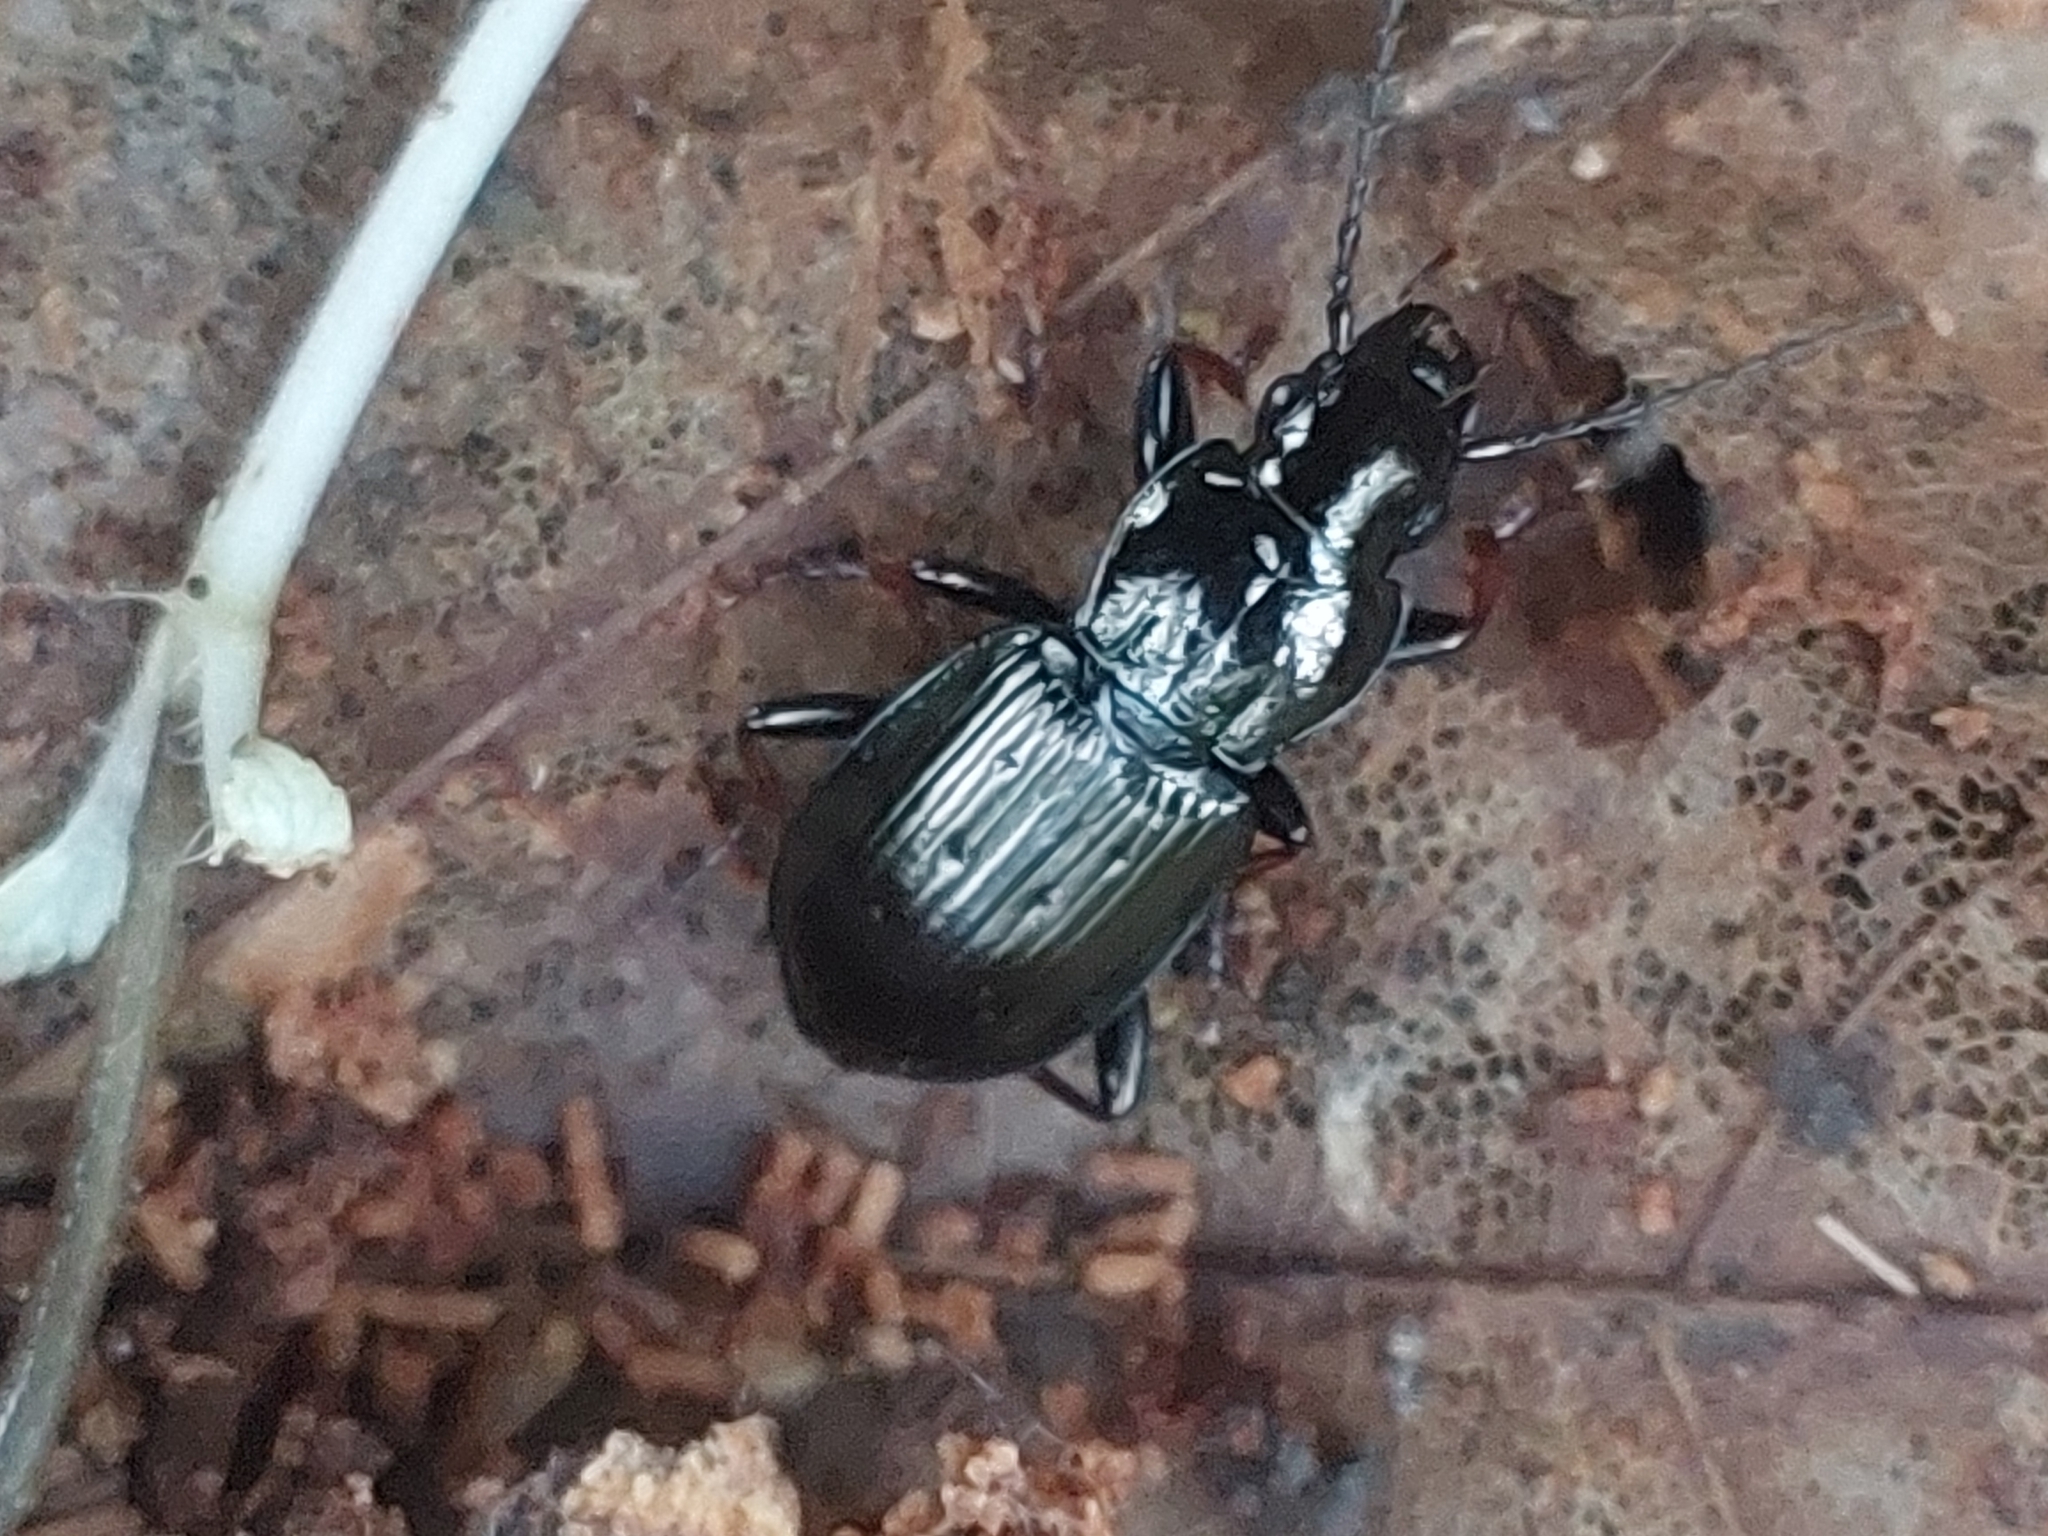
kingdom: Animalia
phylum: Arthropoda
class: Insecta
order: Coleoptera
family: Carabidae
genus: Pterostichus
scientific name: Pterostichus oblongopunctatus
